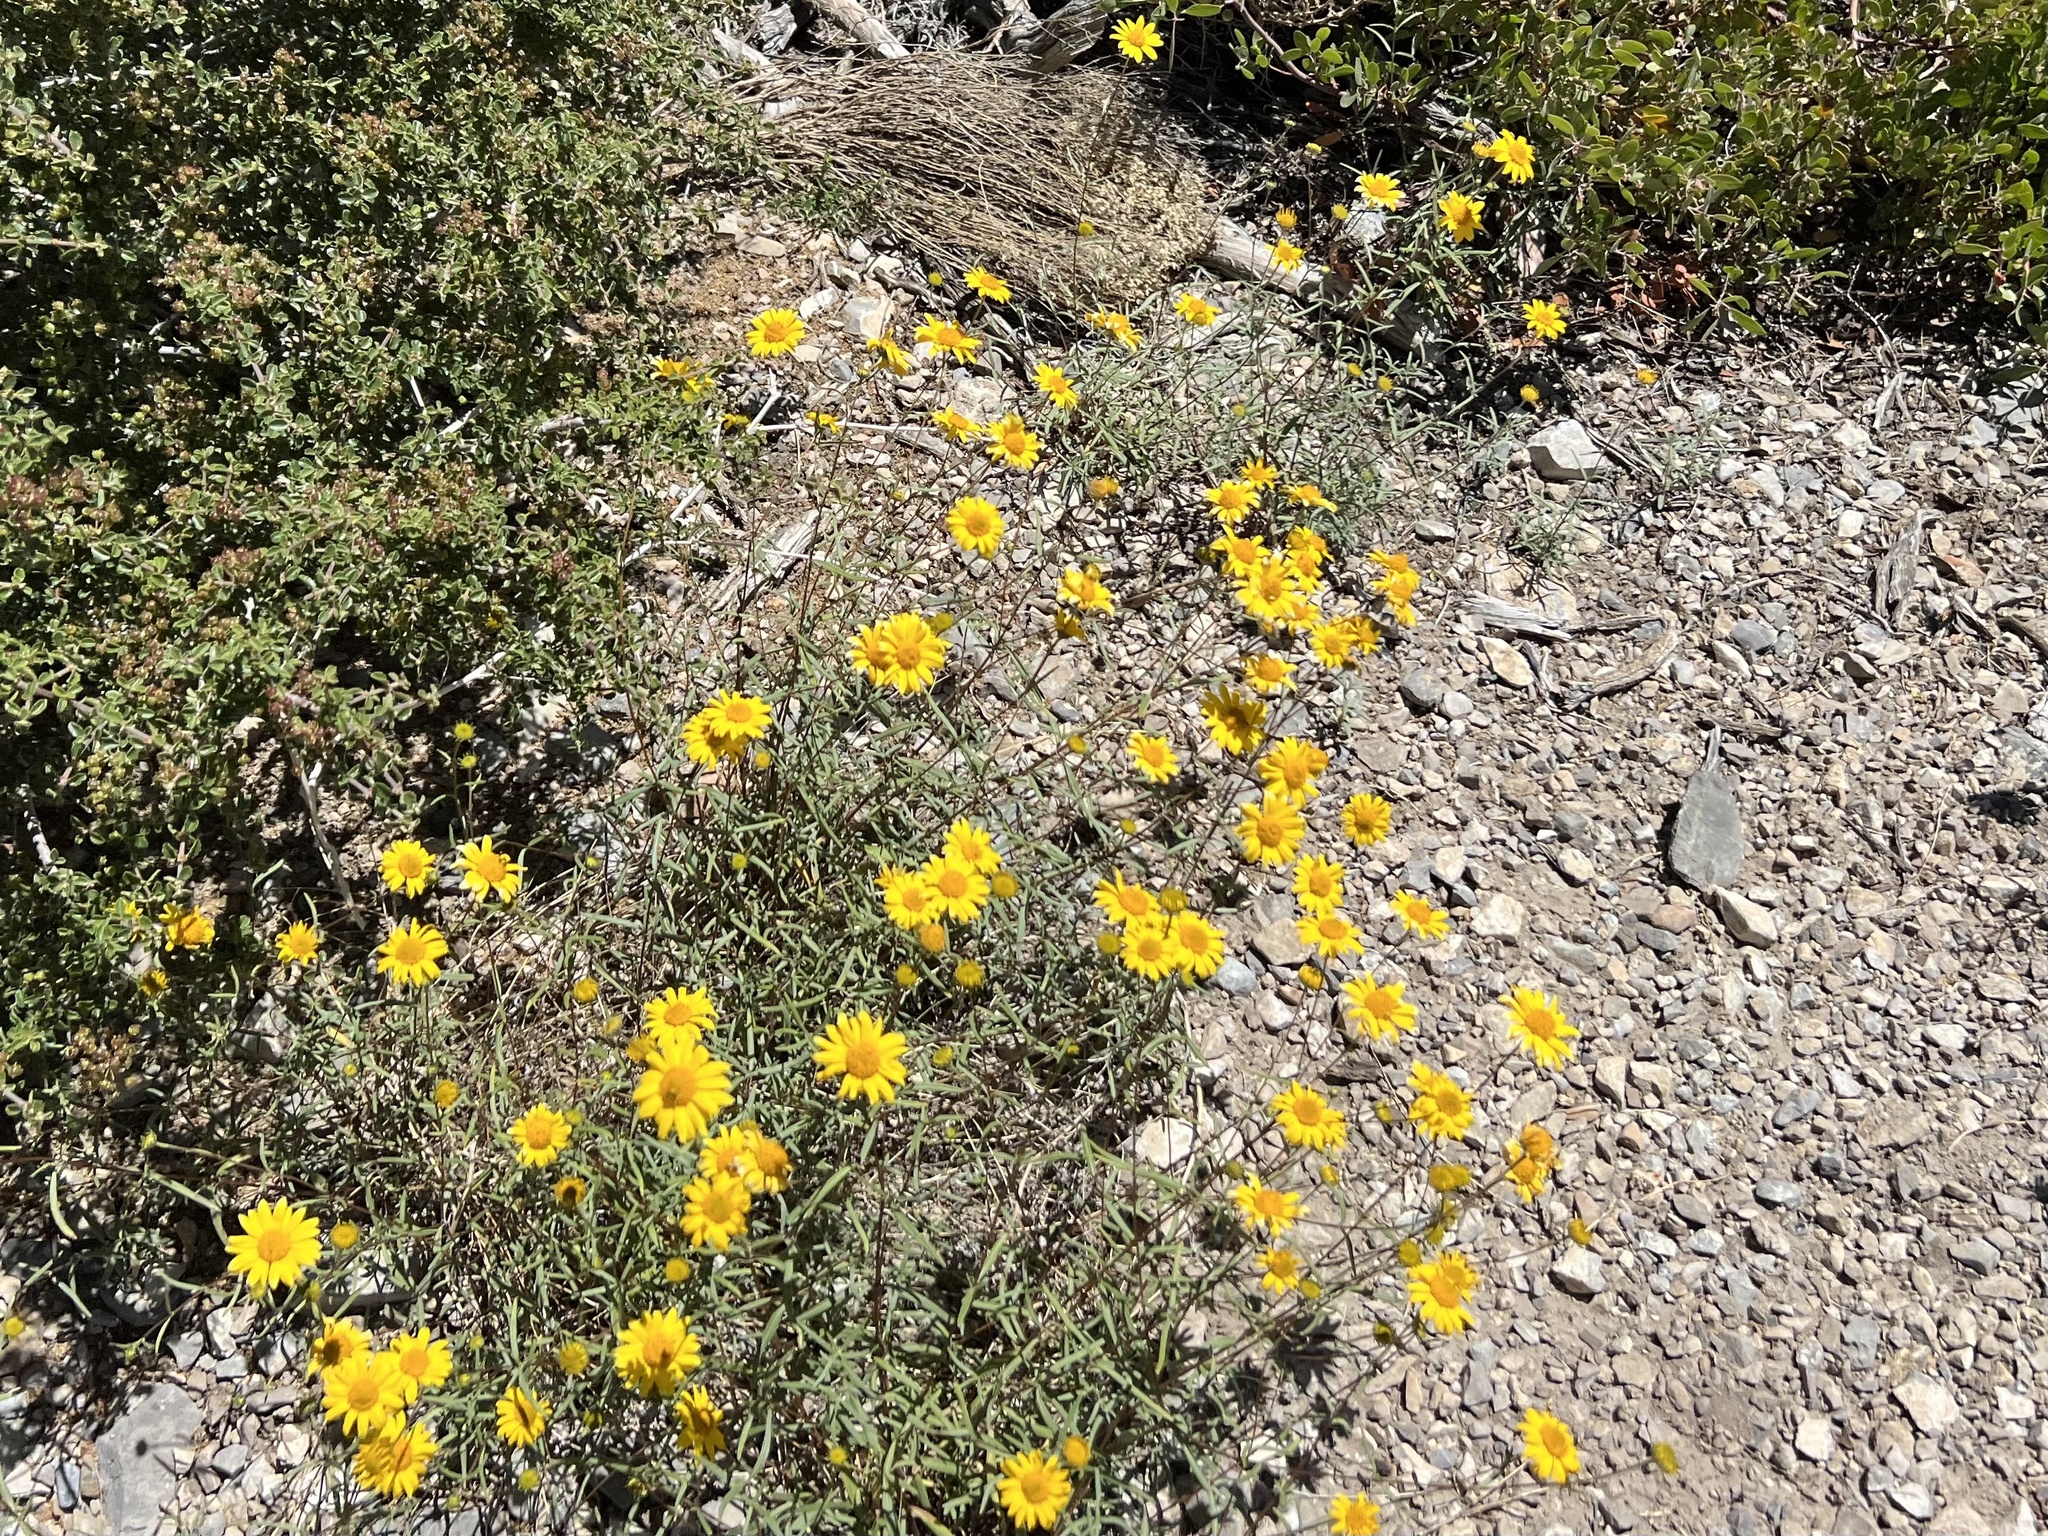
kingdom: Plantae
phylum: Tracheophyta
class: Magnoliopsida
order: Asterales
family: Asteraceae
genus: Heliomeris
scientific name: Heliomeris multiflora
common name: Showy goldeneye
